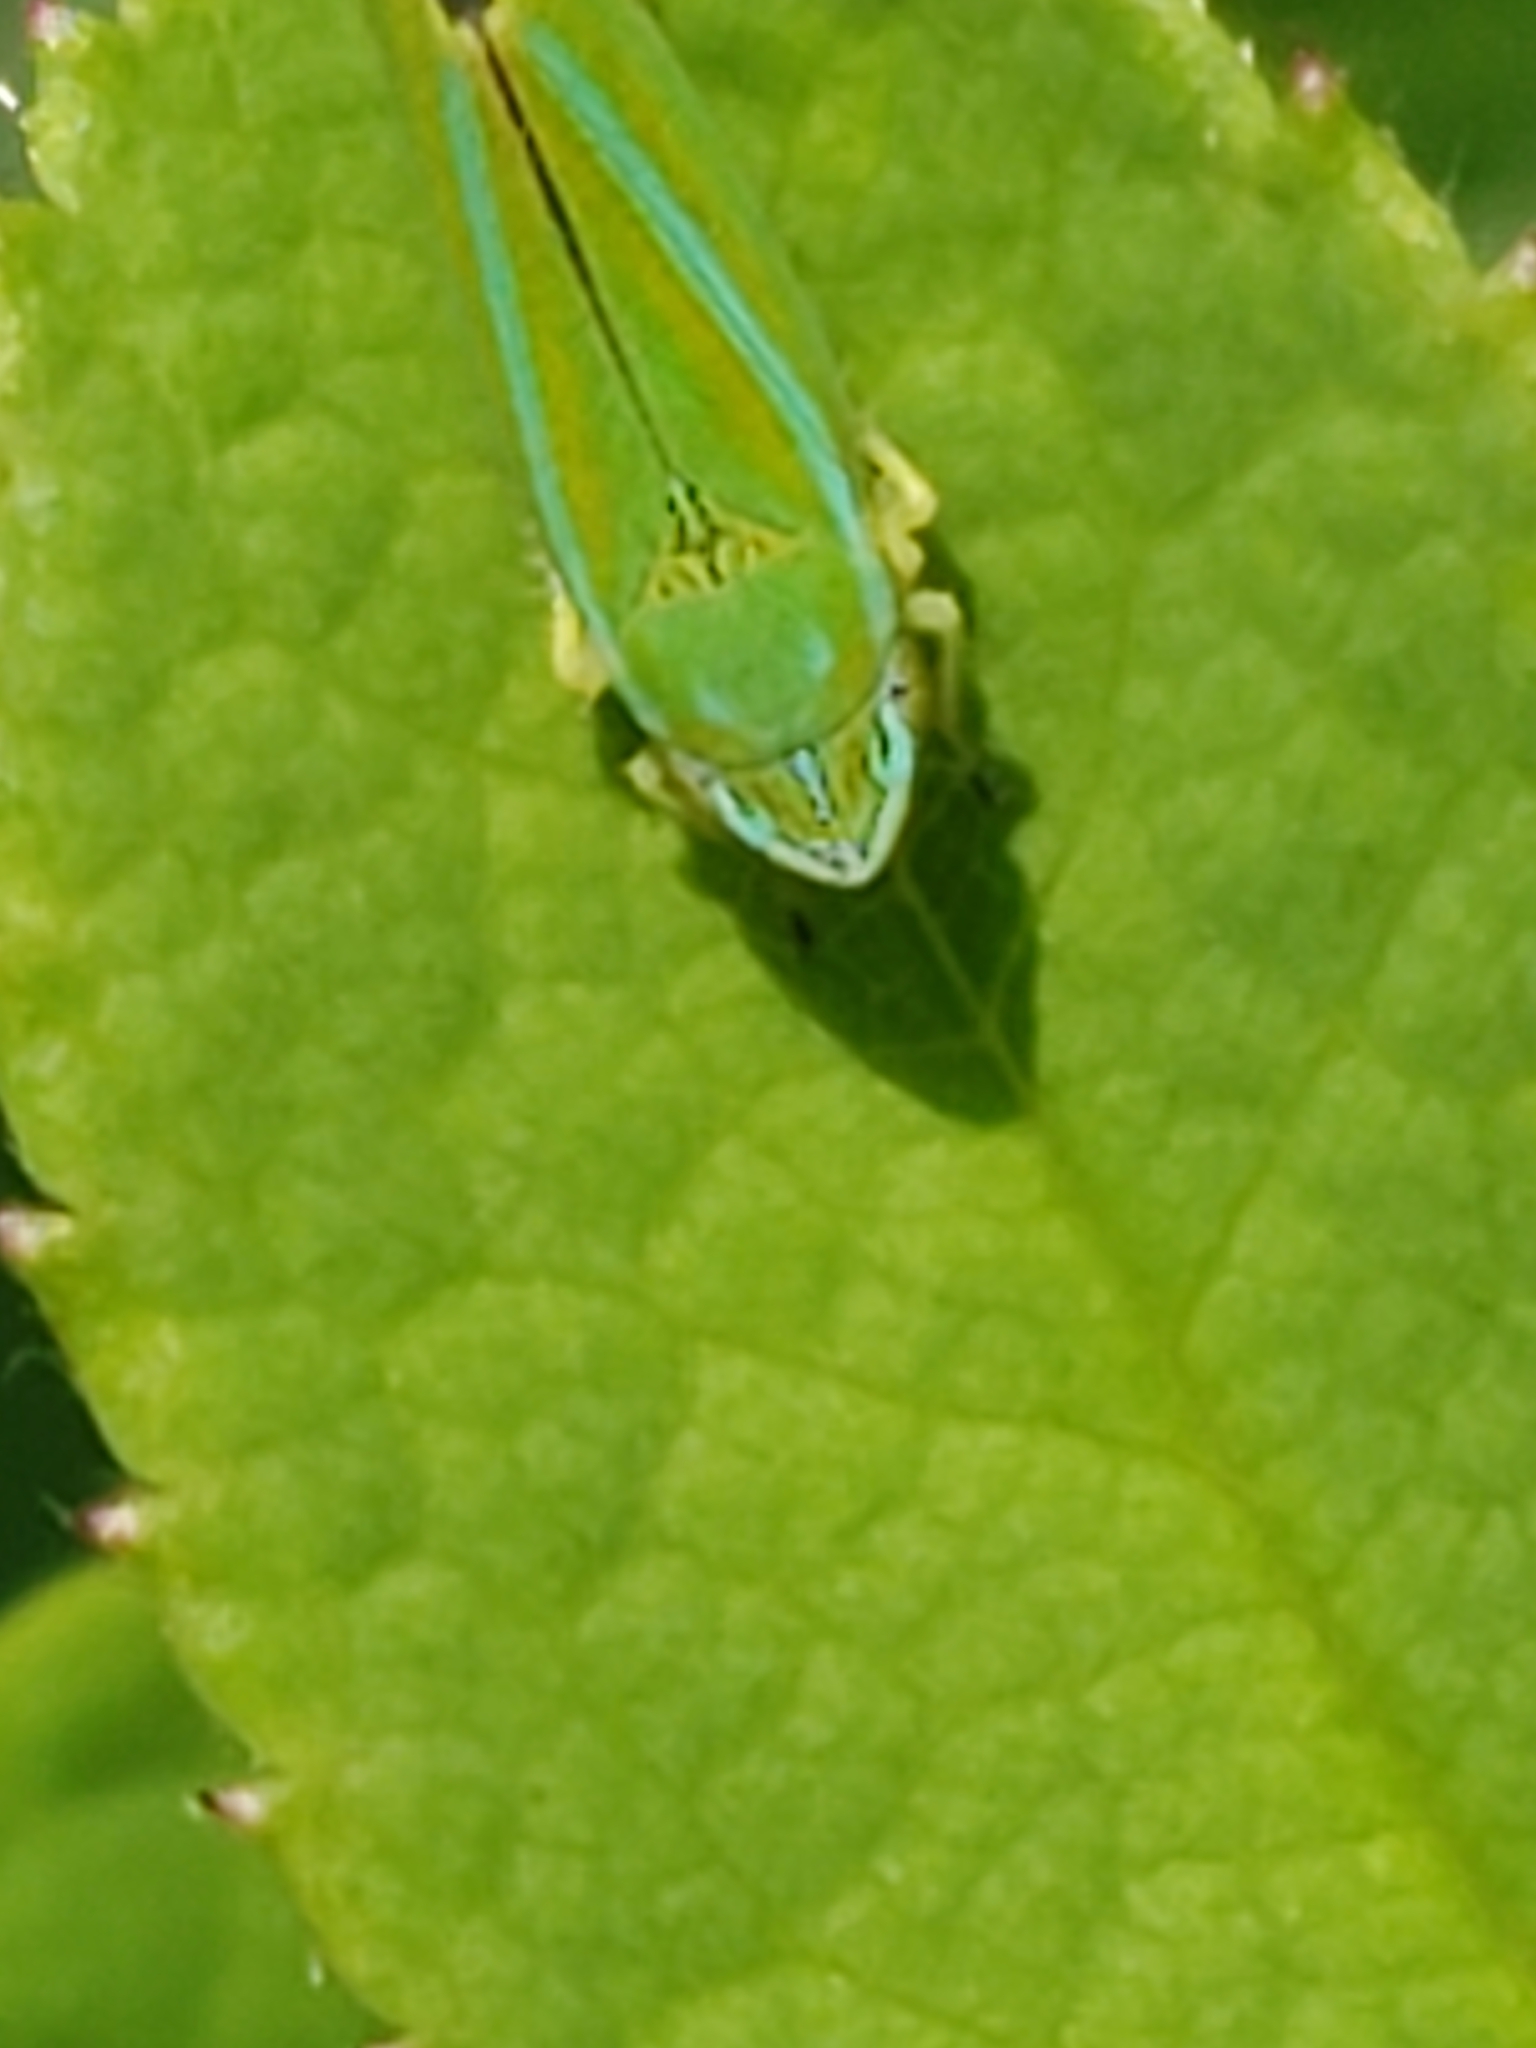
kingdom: Animalia
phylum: Arthropoda
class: Insecta
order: Hemiptera
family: Cicadellidae
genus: Graphocephala
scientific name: Graphocephala versuta
